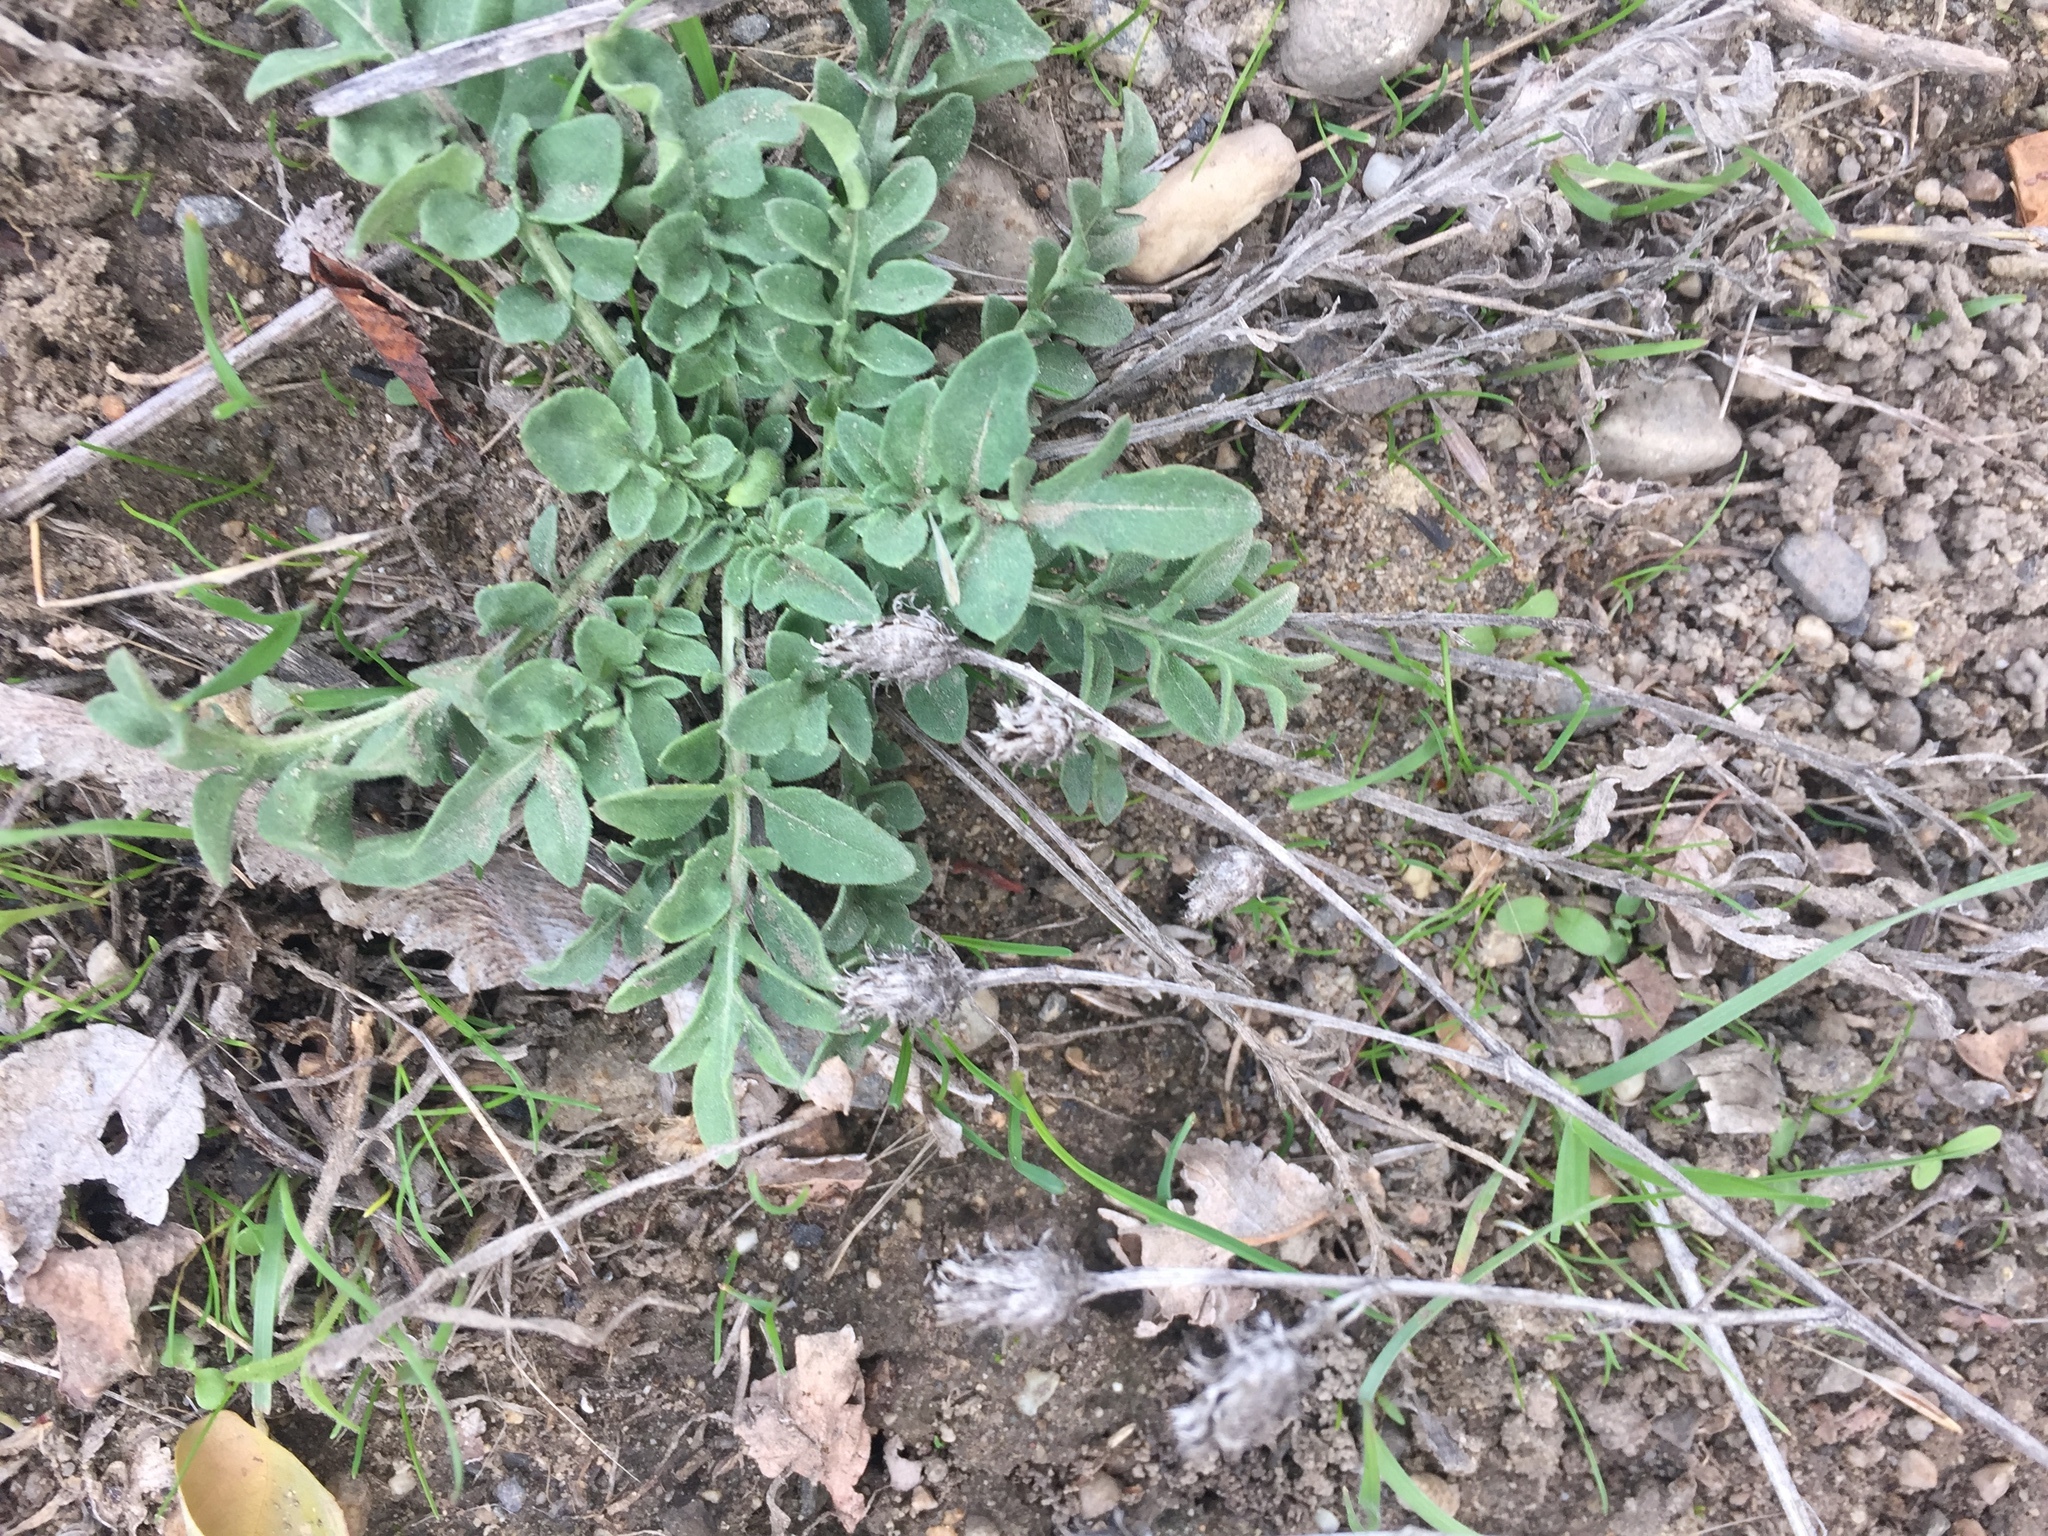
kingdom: Plantae
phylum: Tracheophyta
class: Magnoliopsida
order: Asterales
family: Asteraceae
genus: Centaurea
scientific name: Centaurea diffusa
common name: Diffuse knapweed
